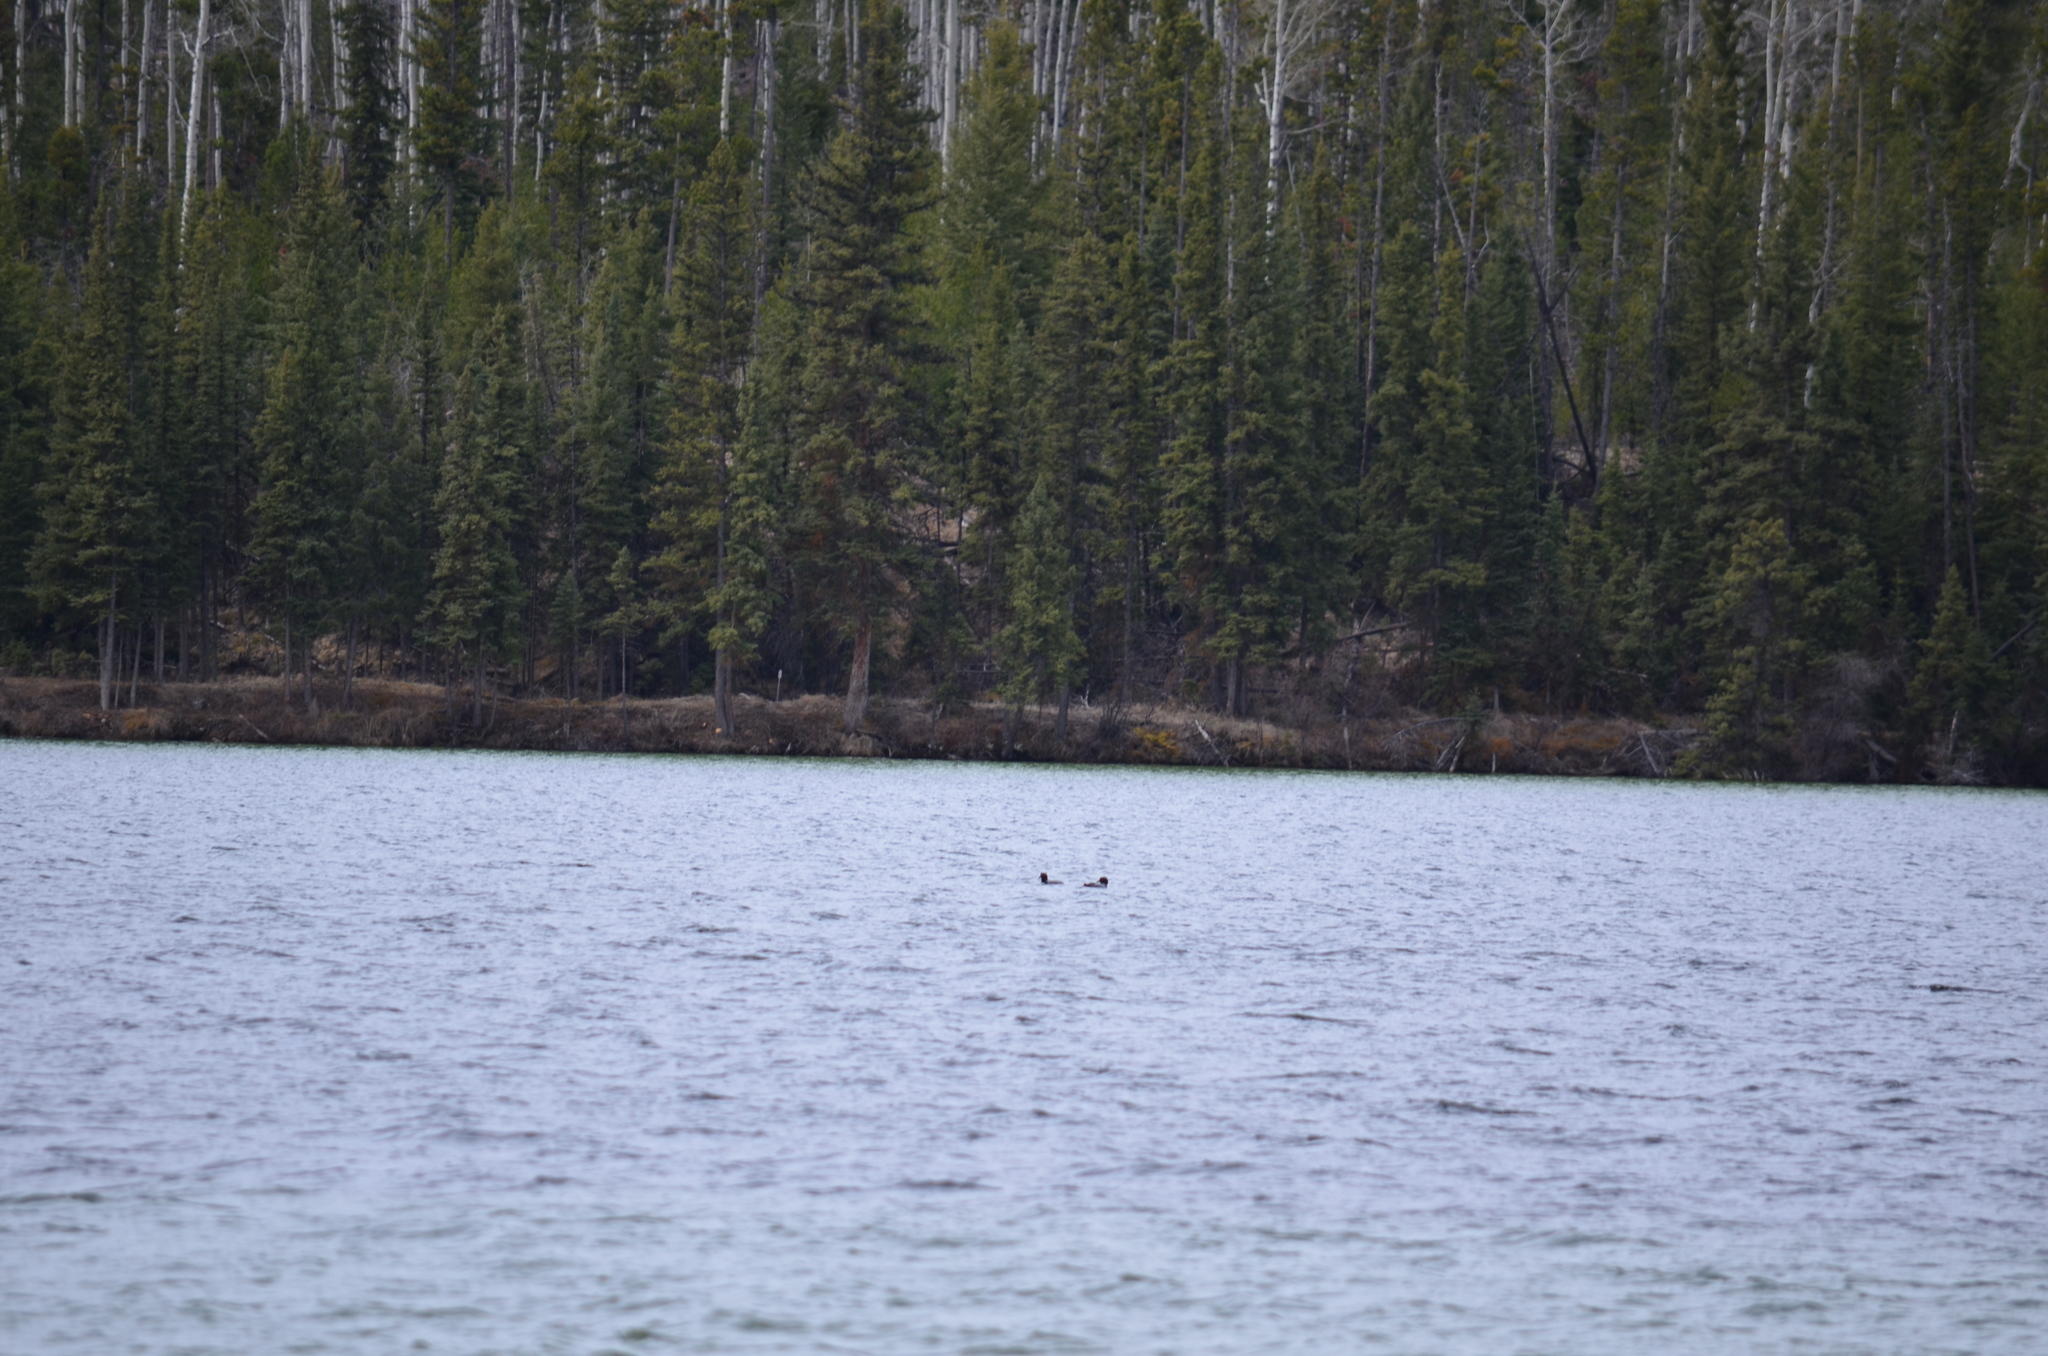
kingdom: Animalia
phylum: Chordata
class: Aves
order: Gaviiformes
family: Gaviidae
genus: Gavia
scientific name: Gavia immer
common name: Common loon
